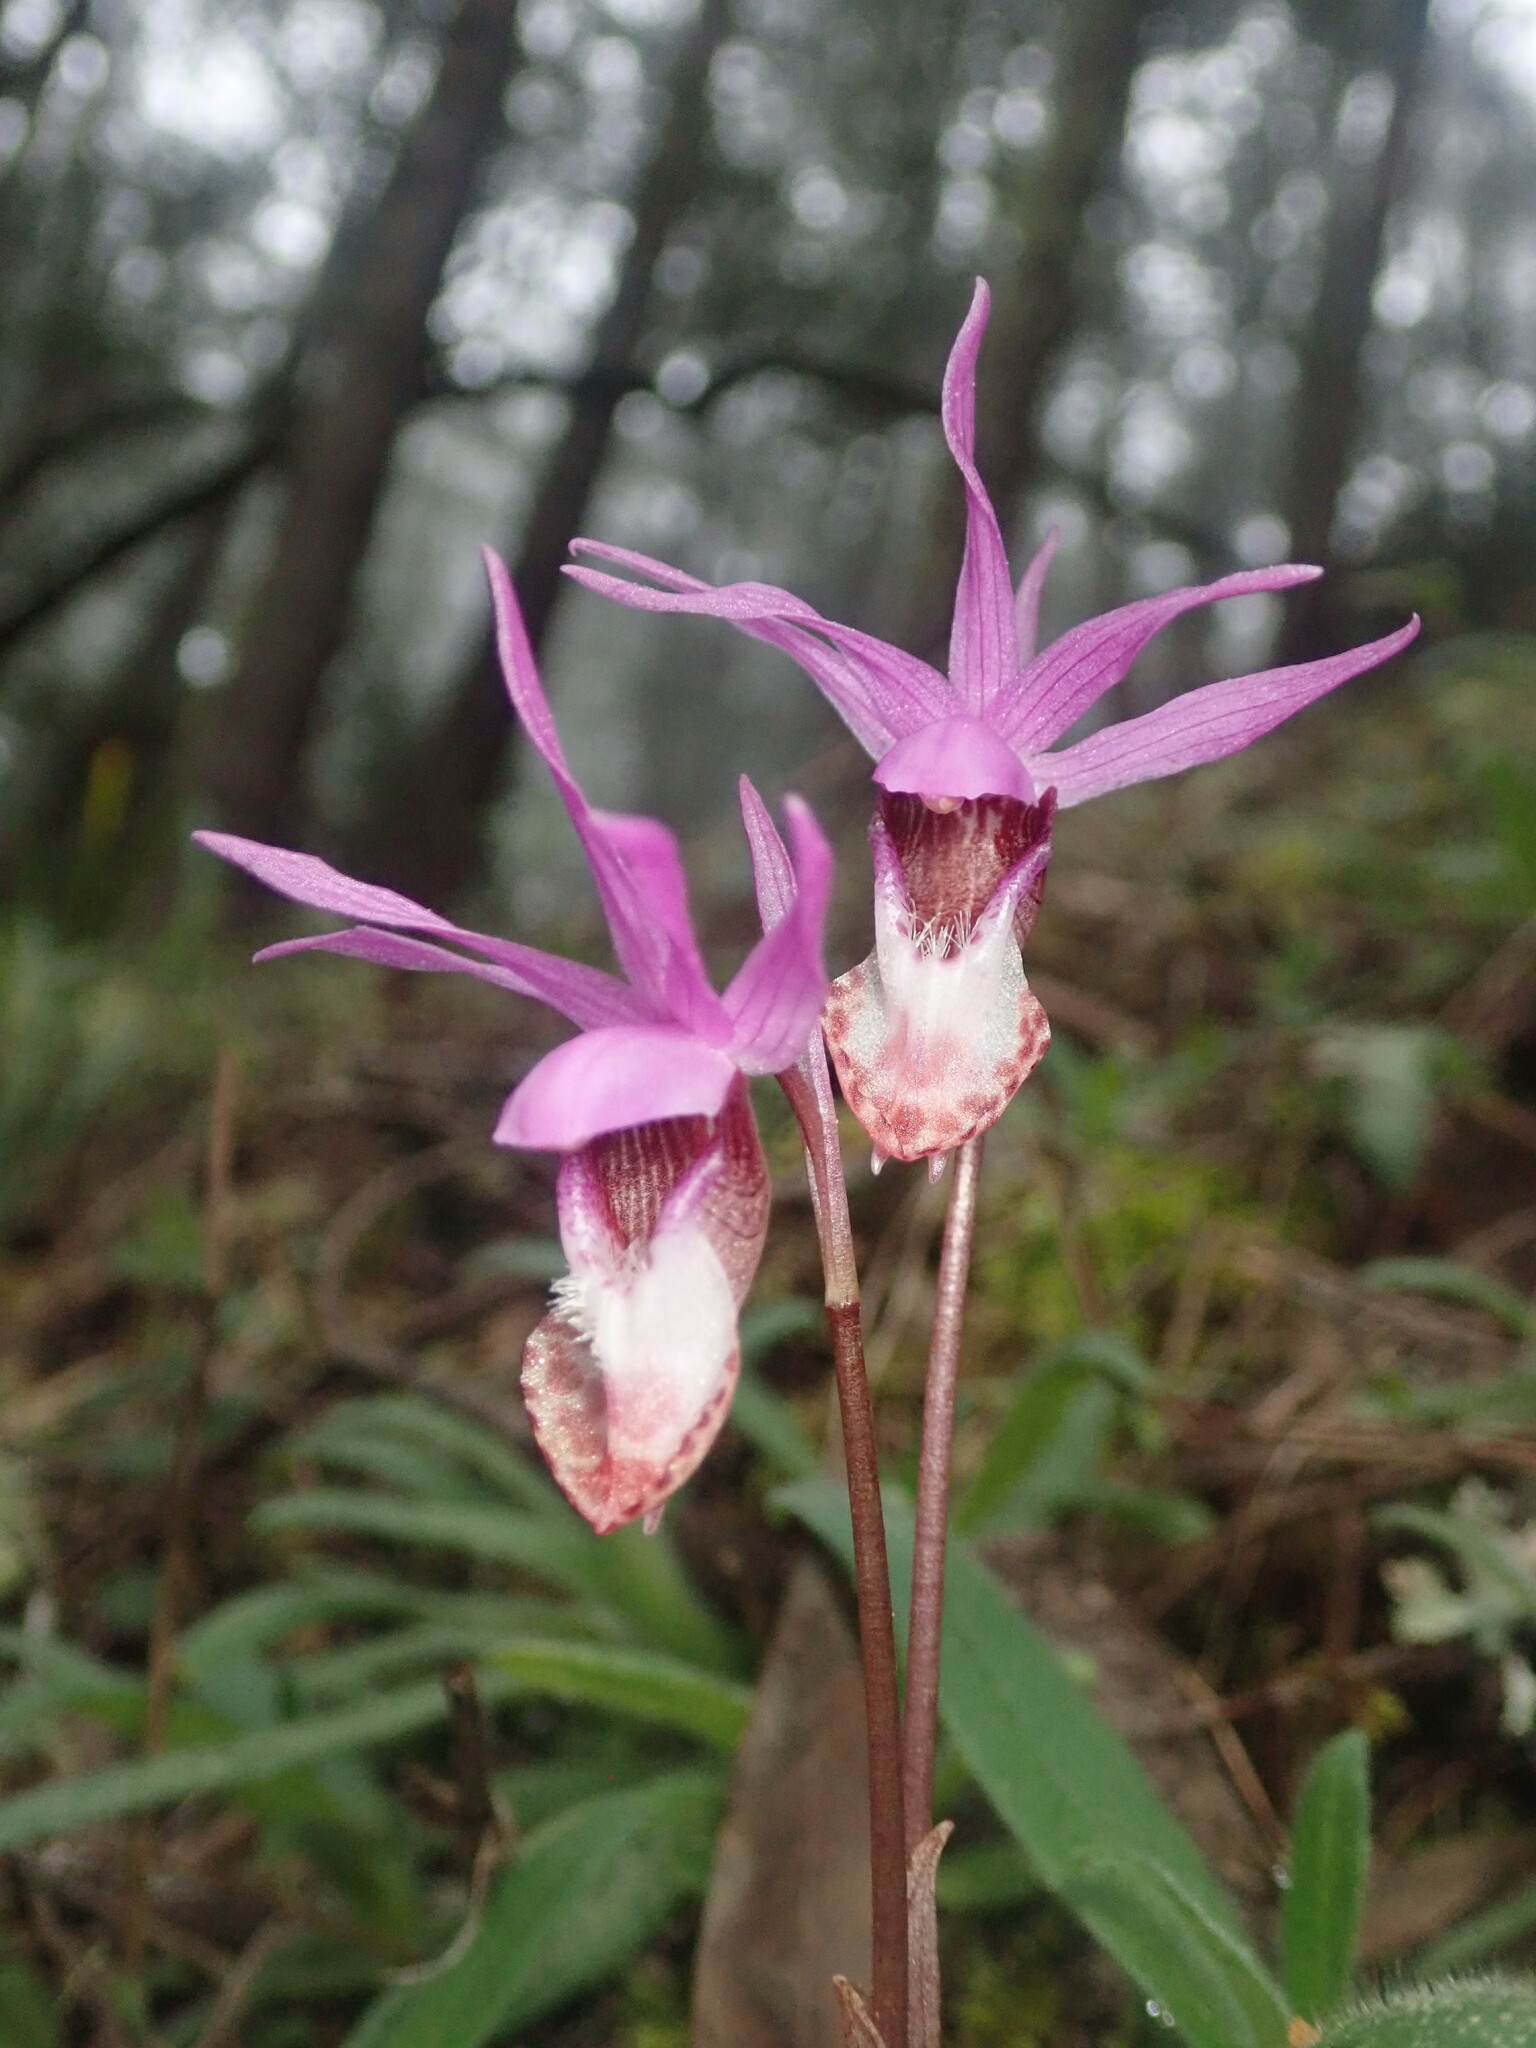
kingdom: Plantae
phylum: Tracheophyta
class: Liliopsida
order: Asparagales
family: Orchidaceae
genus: Calypso
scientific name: Calypso bulbosa
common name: Calypso
